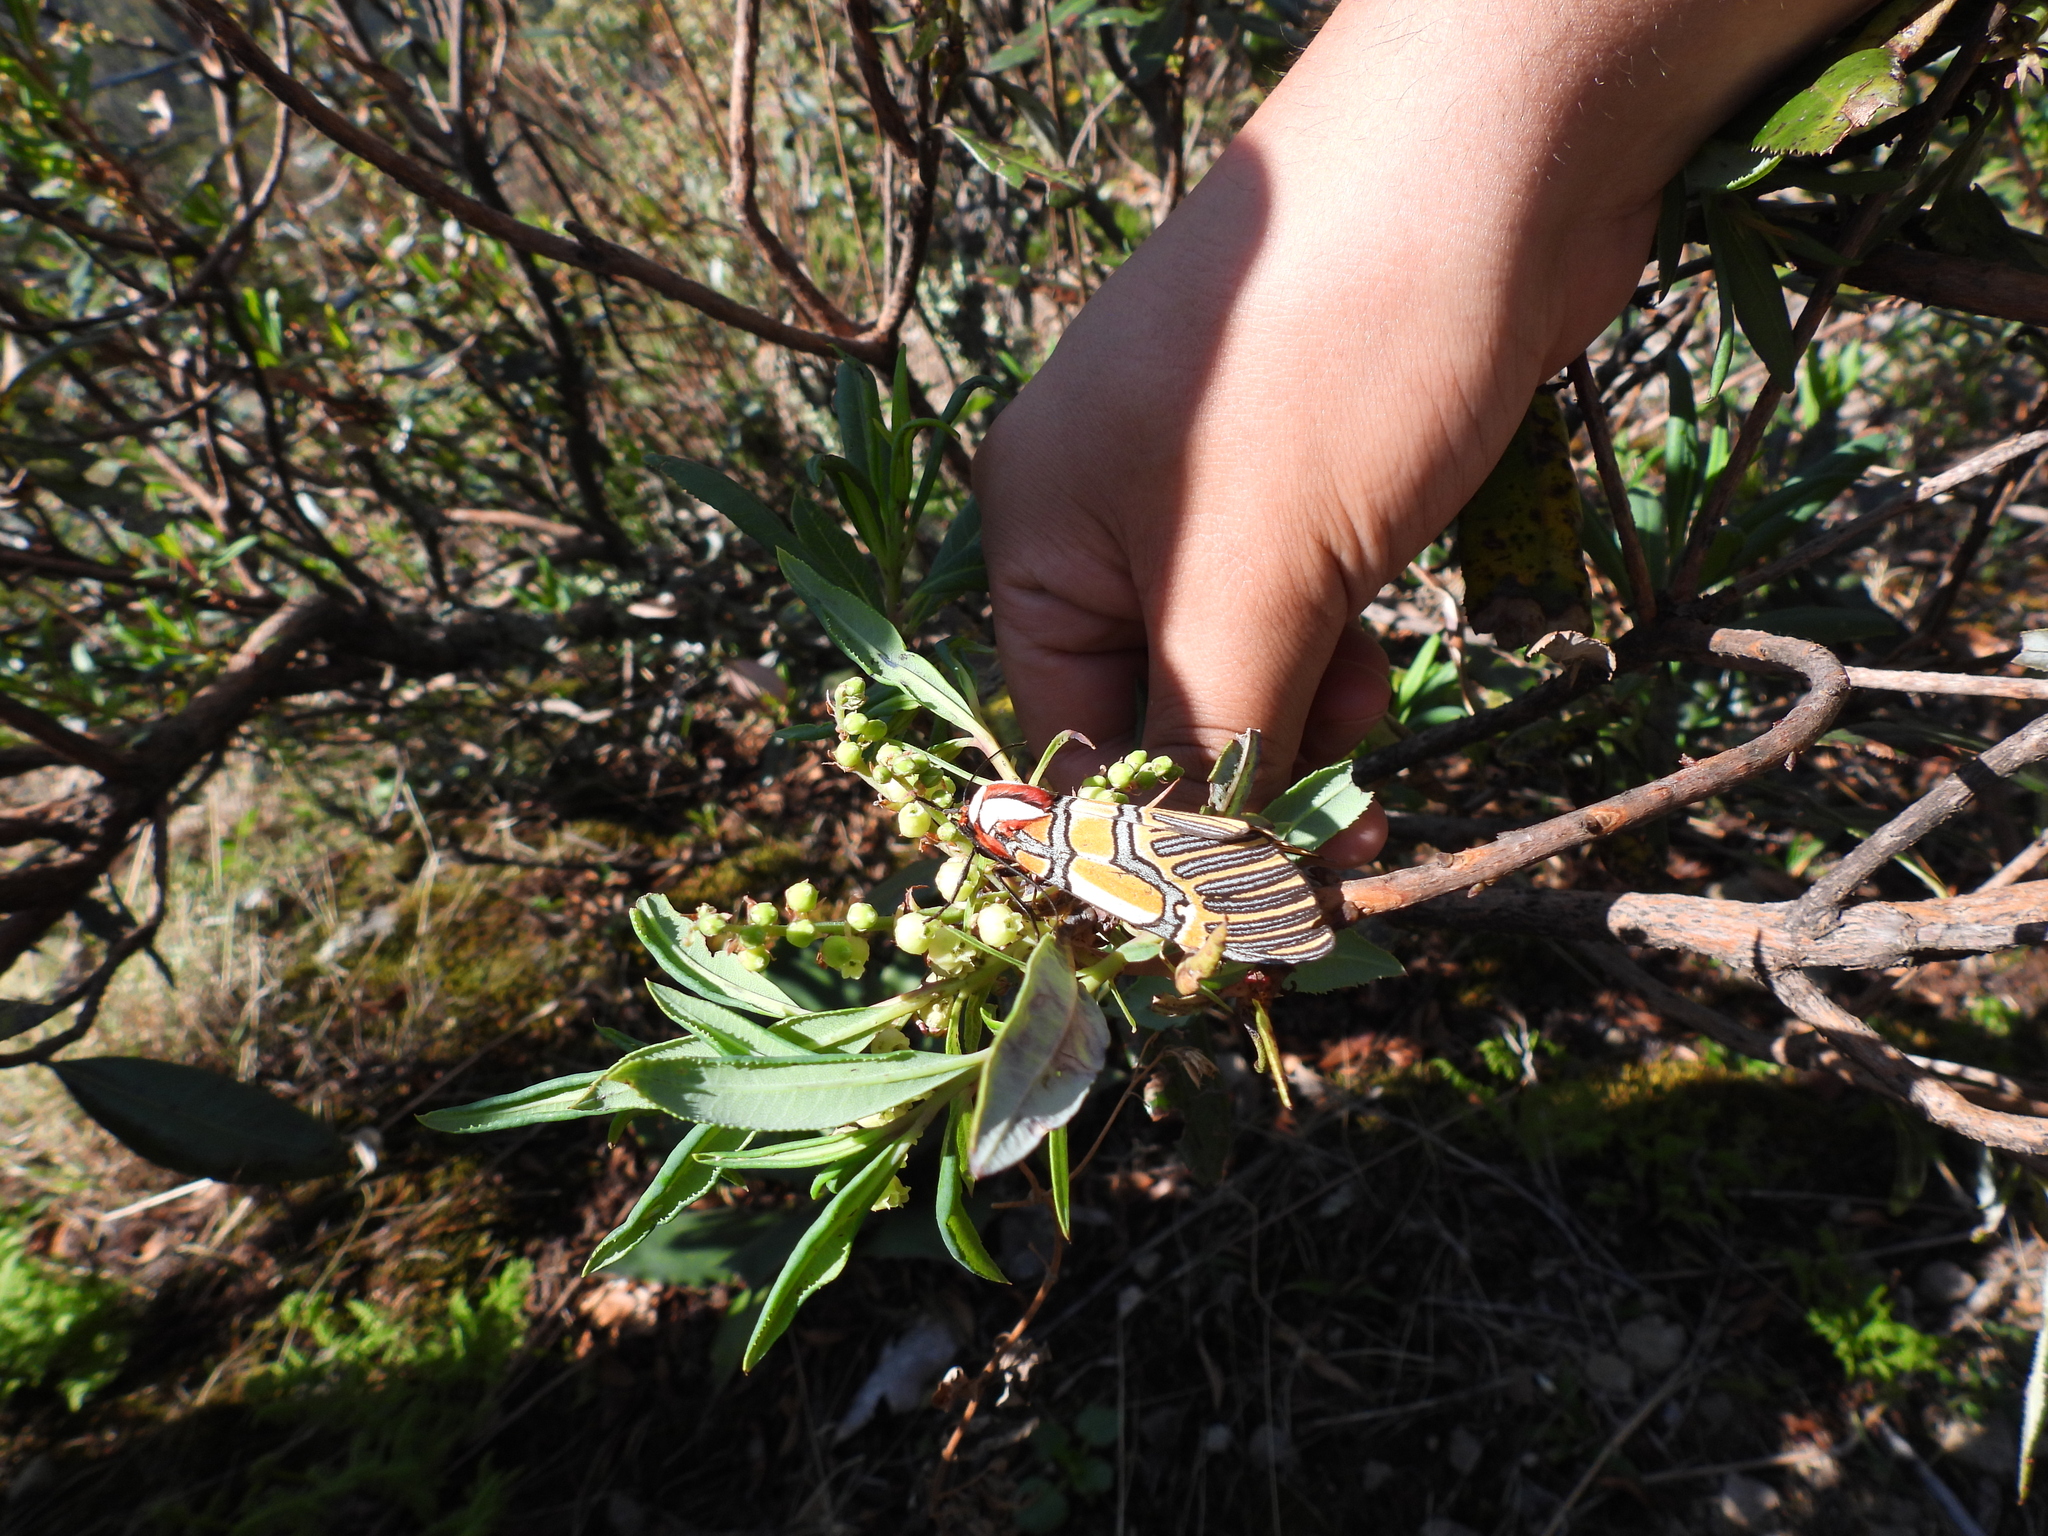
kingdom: Animalia
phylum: Arthropoda
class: Insecta
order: Lepidoptera
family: Erebidae
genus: Anaxita
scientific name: Anaxita decorata
